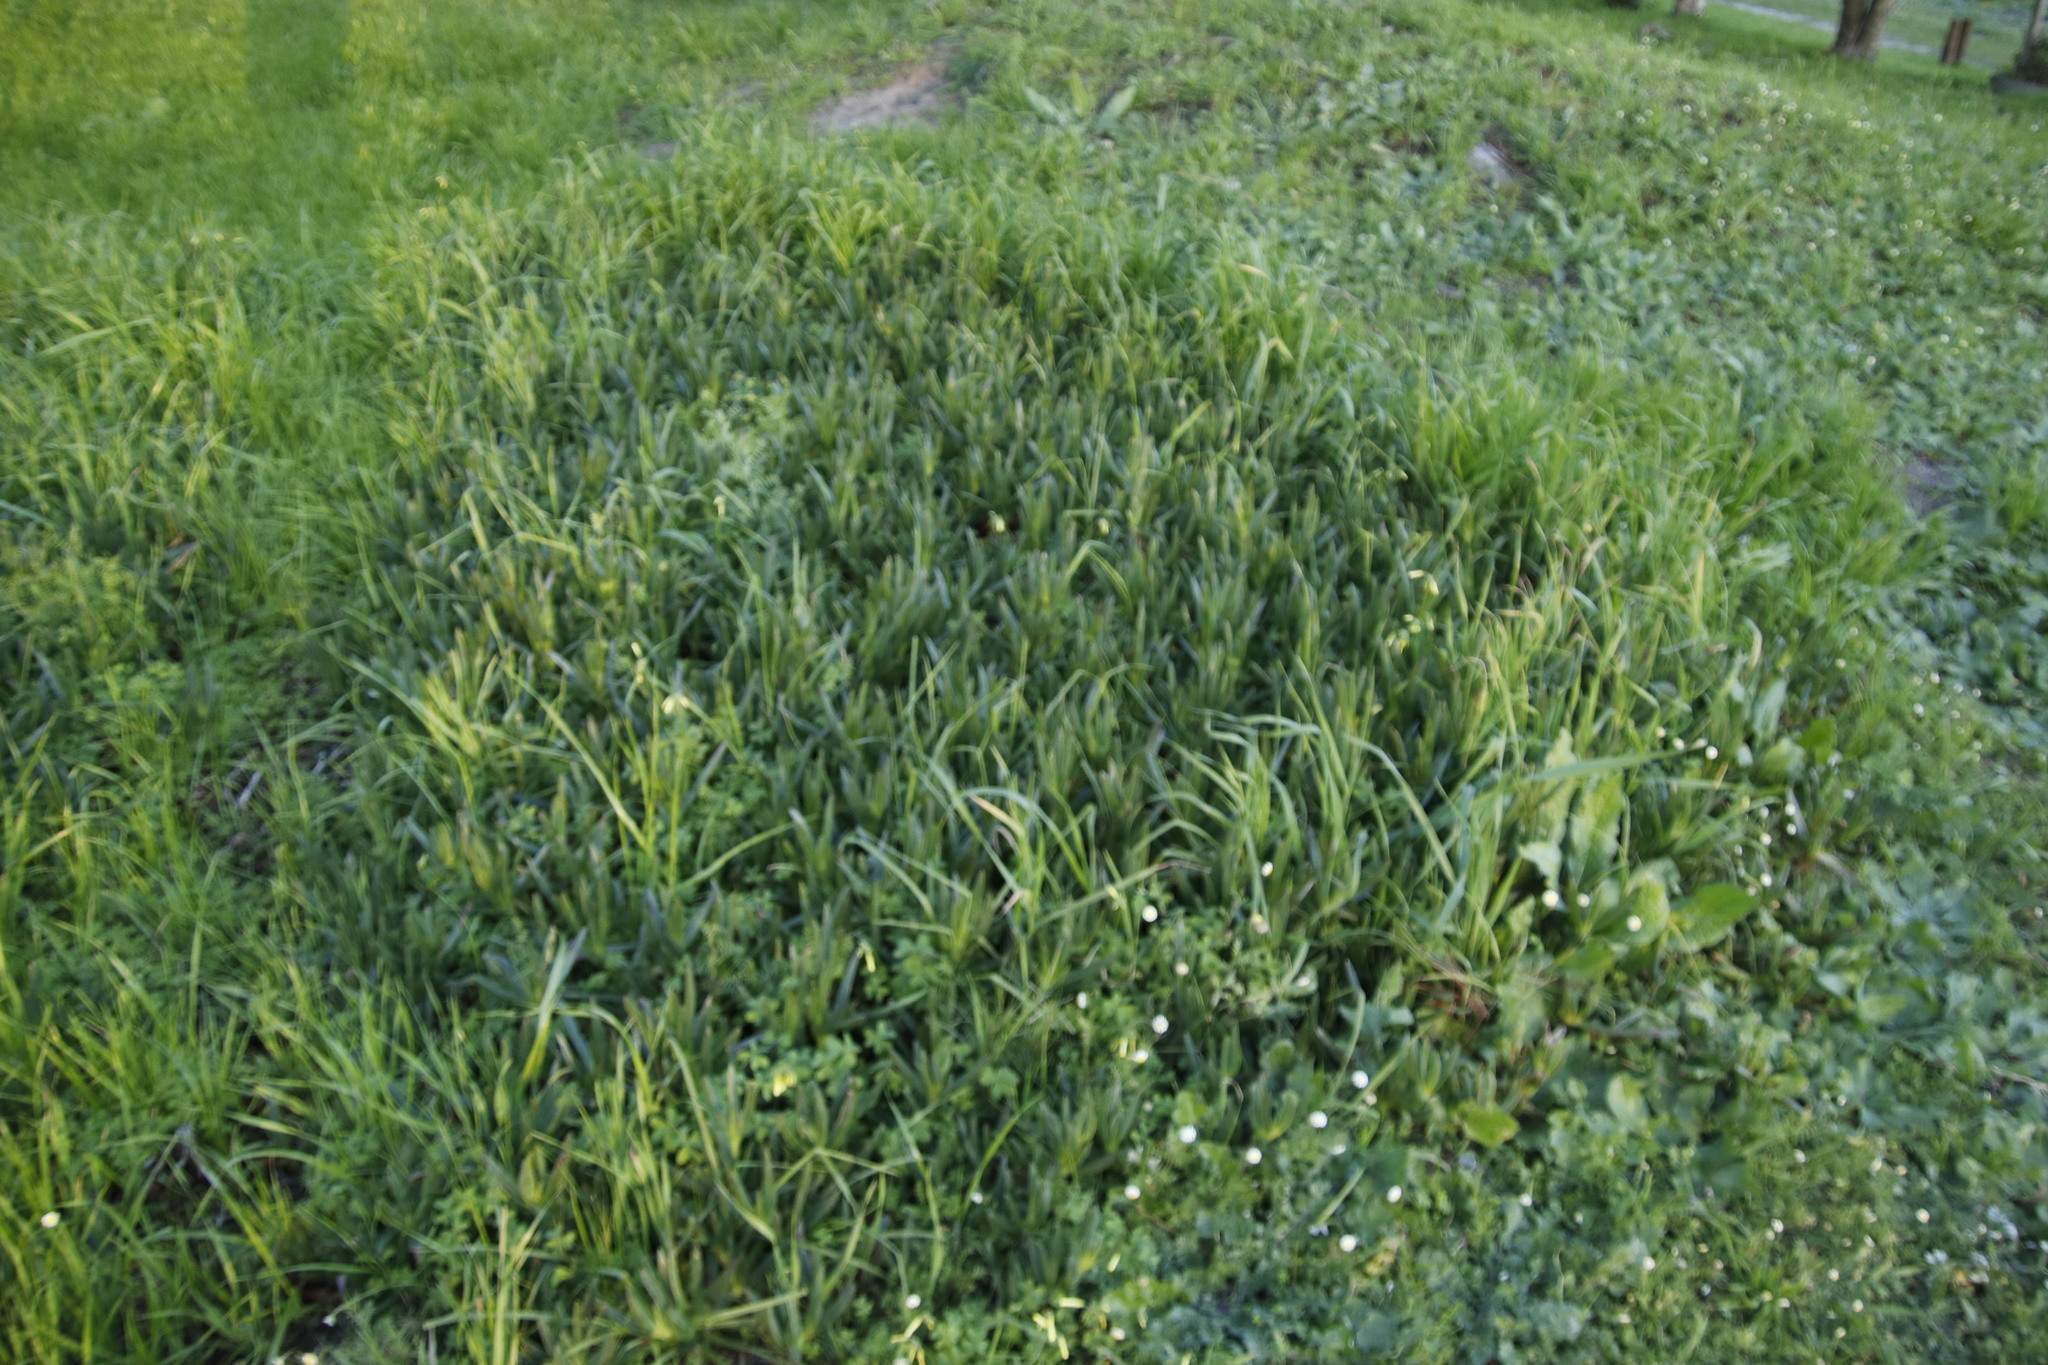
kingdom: Plantae
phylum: Tracheophyta
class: Magnoliopsida
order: Fabales
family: Fabaceae
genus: Vicia
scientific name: Vicia hirsuta
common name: Tiny vetch
